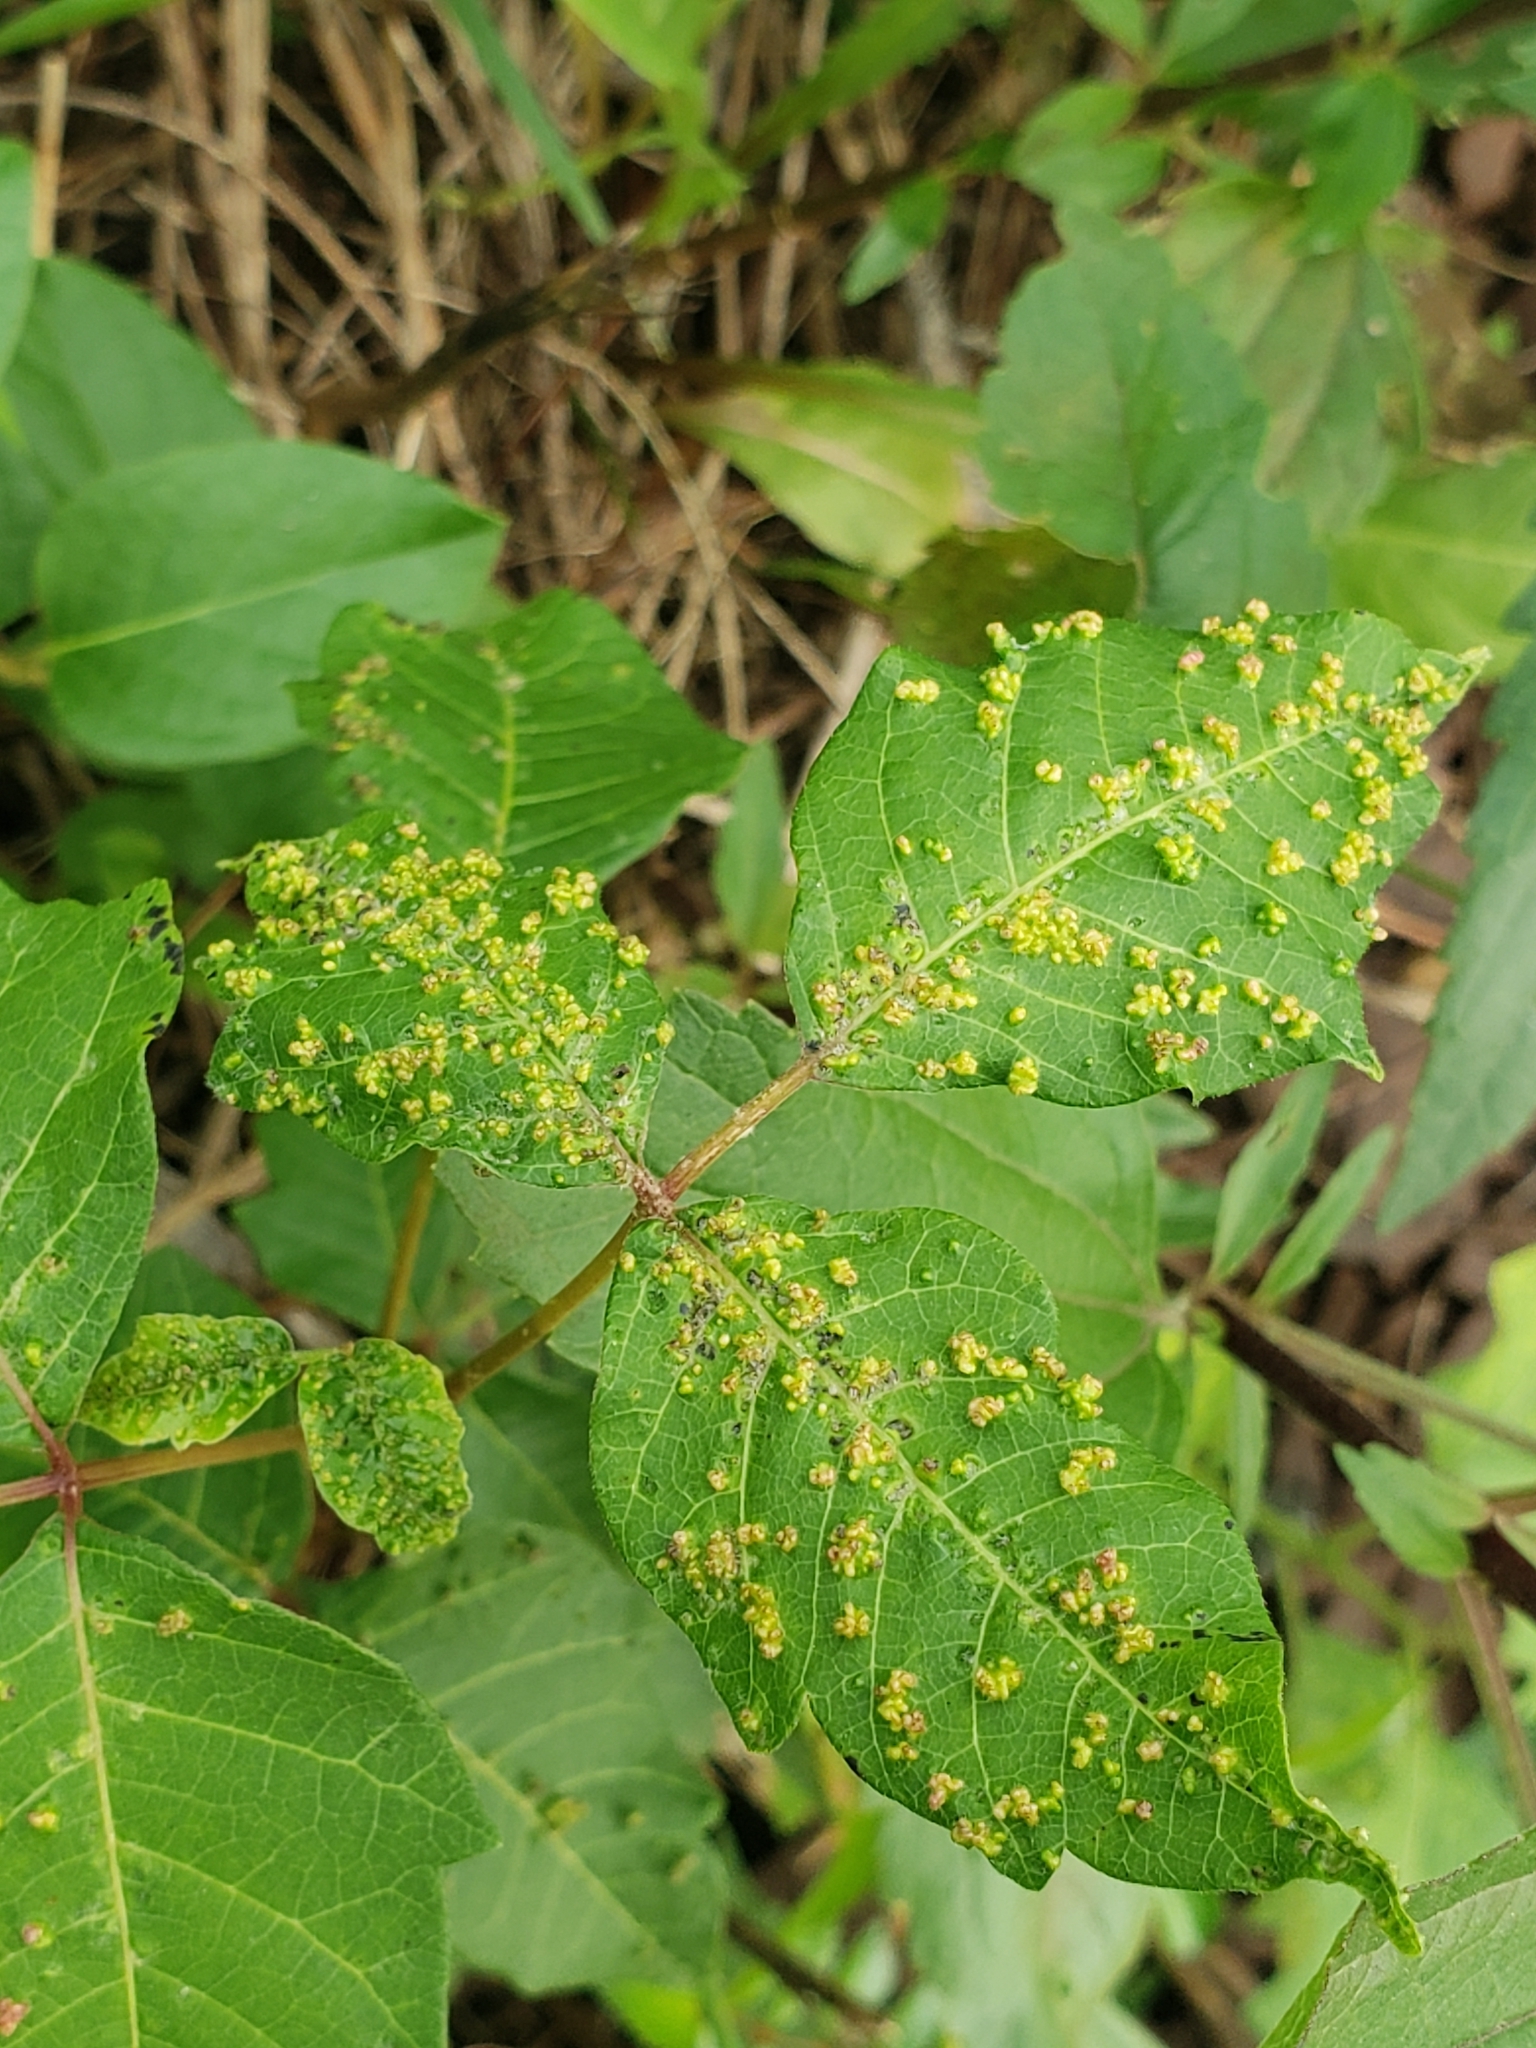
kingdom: Animalia
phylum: Arthropoda
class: Arachnida
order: Trombidiformes
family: Eriophyidae
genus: Aculops
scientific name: Aculops
